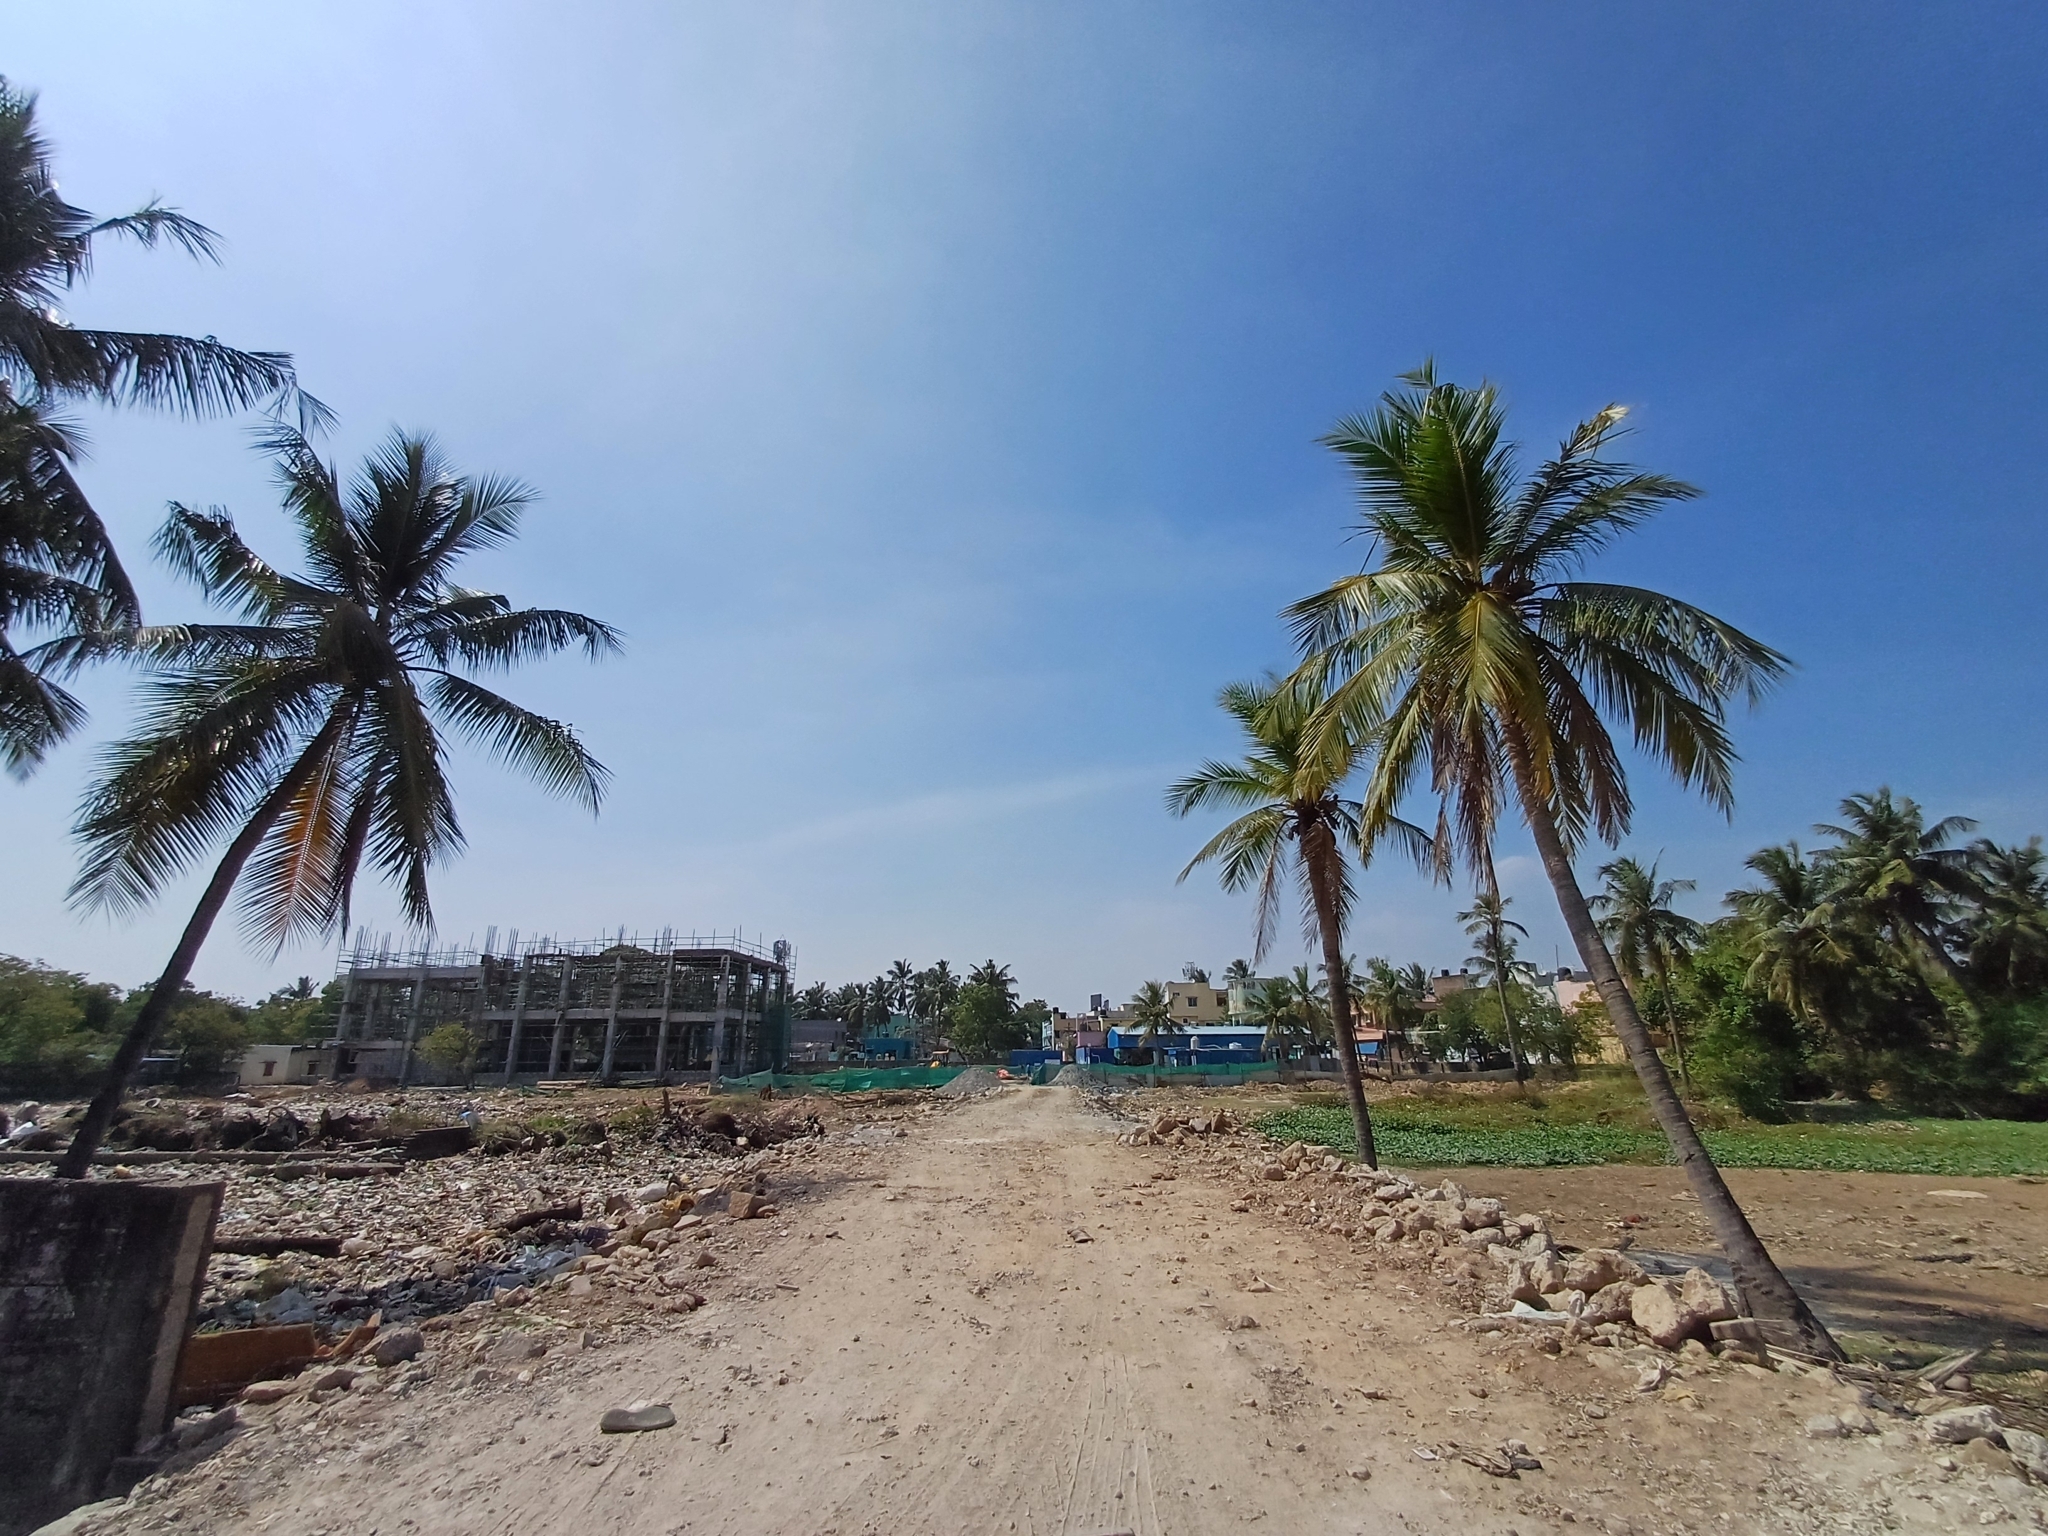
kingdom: Plantae
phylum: Tracheophyta
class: Liliopsida
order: Arecales
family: Arecaceae
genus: Cocos
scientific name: Cocos nucifera
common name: Coconut palm
